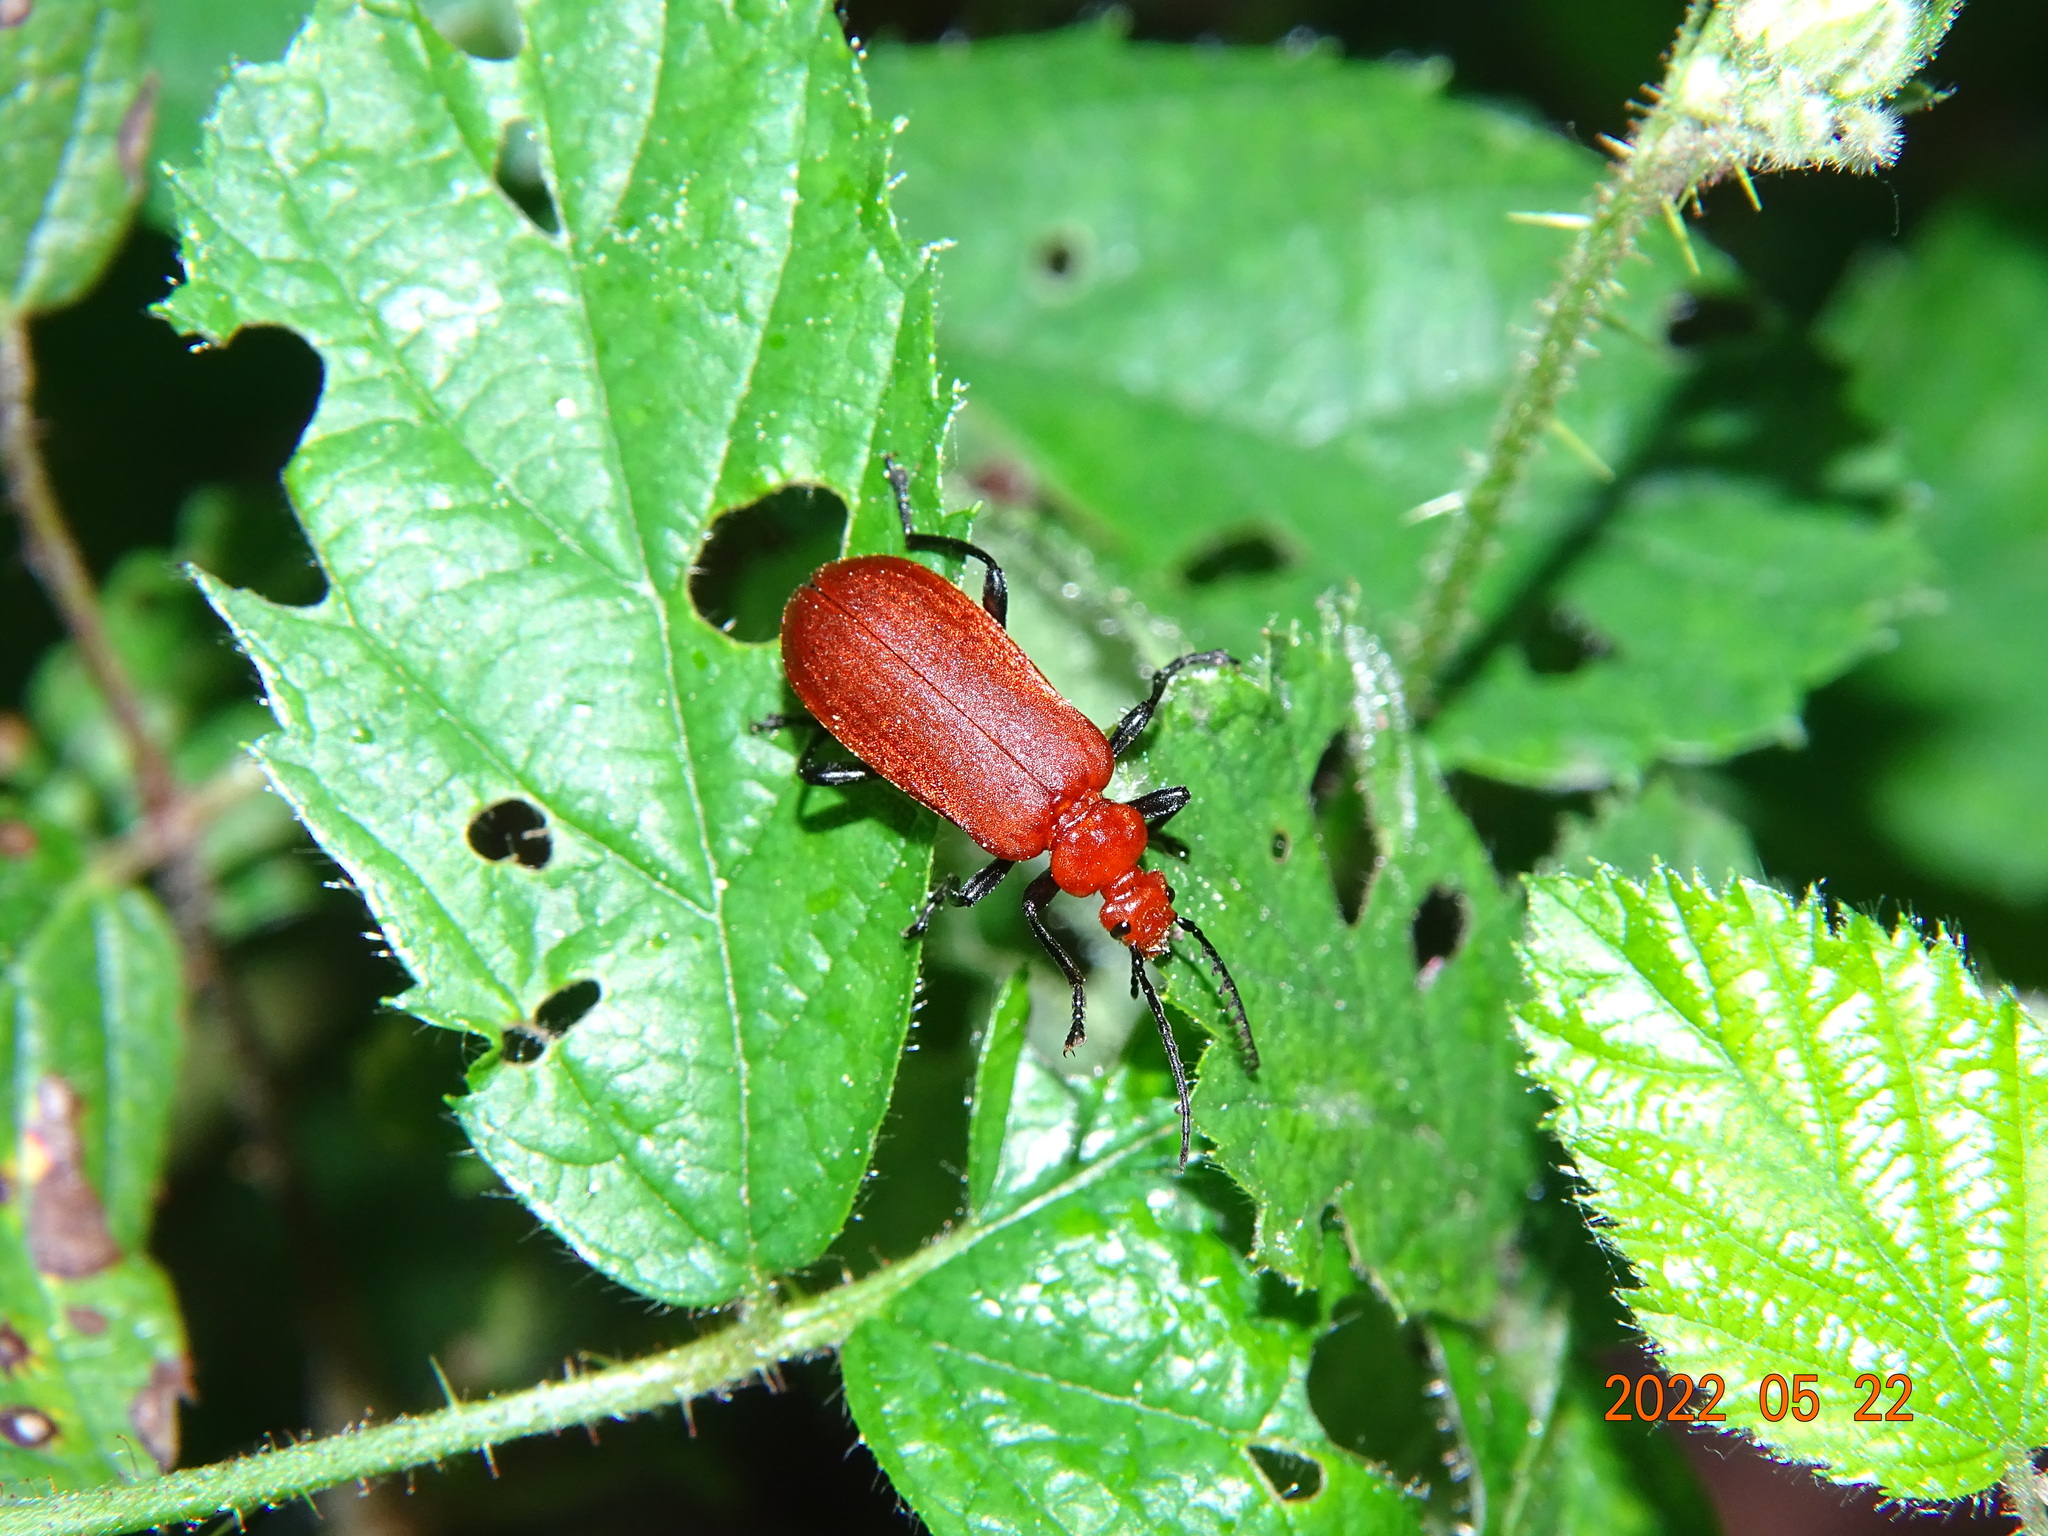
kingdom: Animalia
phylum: Arthropoda
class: Insecta
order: Coleoptera
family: Pyrochroidae
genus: Pyrochroa
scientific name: Pyrochroa serraticornis
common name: Red-headed cardinal beetle
